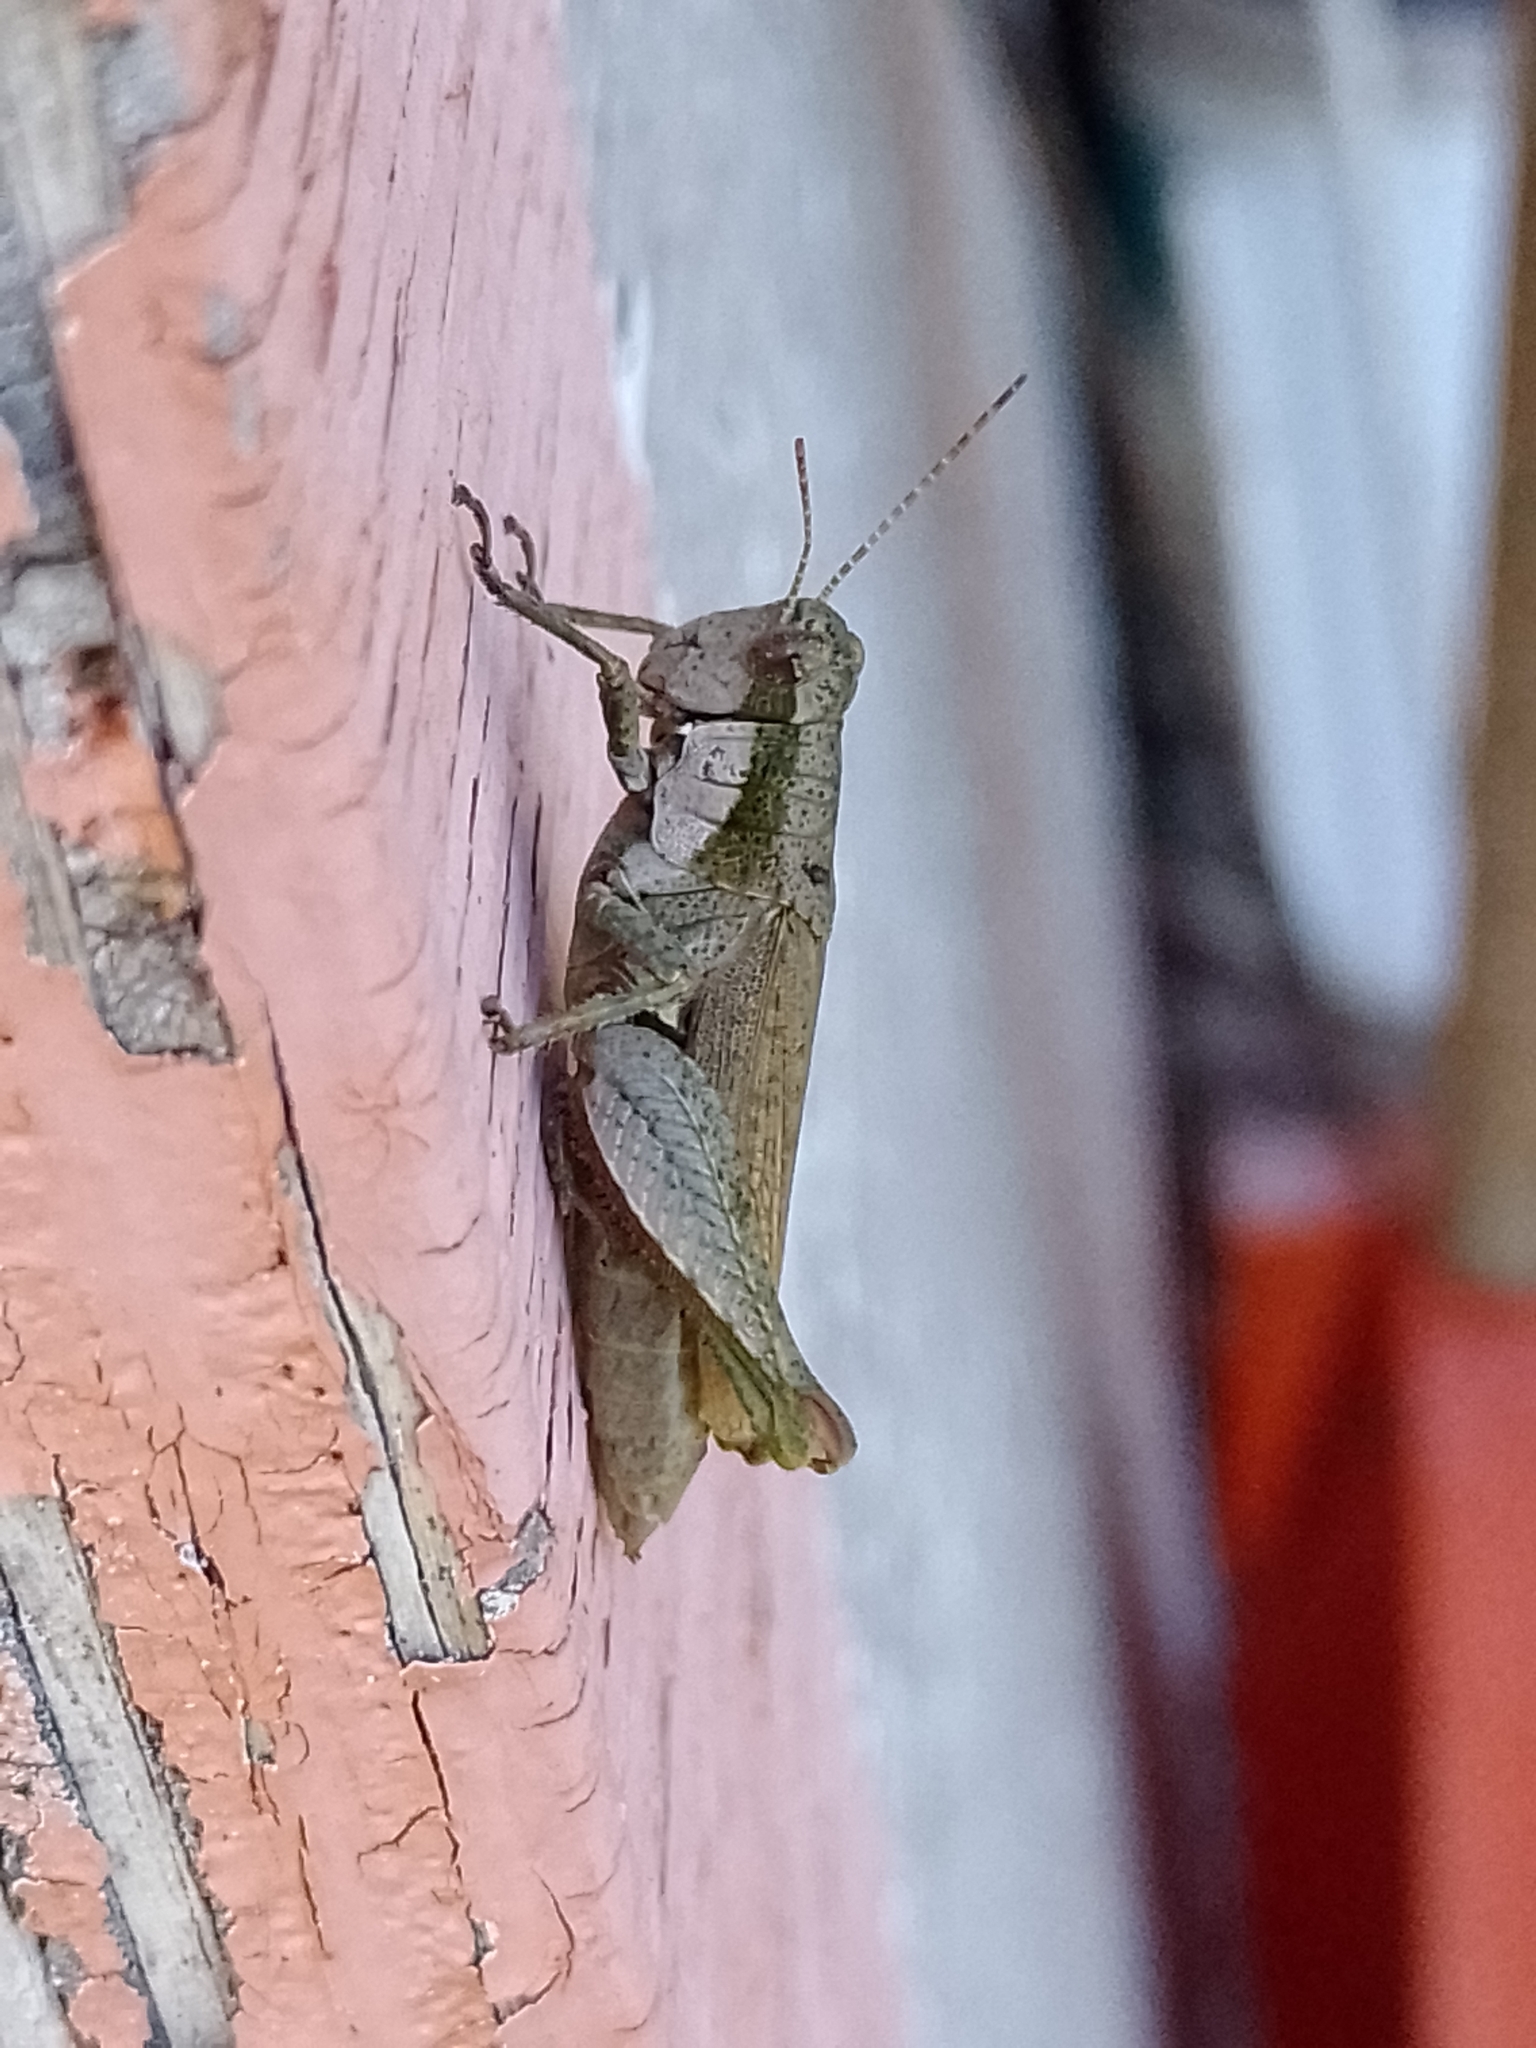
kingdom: Animalia
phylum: Arthropoda
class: Insecta
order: Orthoptera
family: Acrididae
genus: Ronderosia
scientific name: Ronderosia bergii
